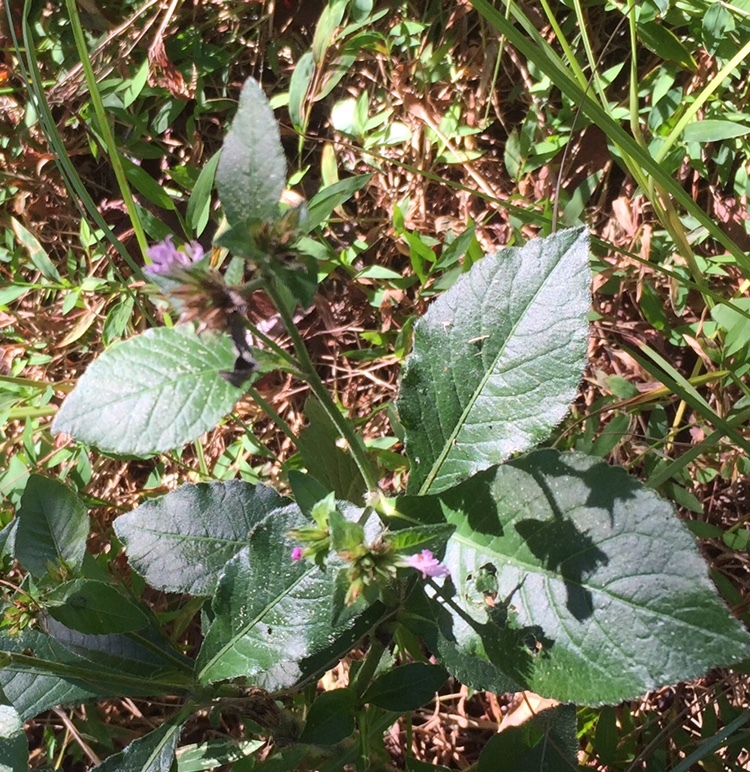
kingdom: Plantae
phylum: Tracheophyta
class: Magnoliopsida
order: Asterales
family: Asteraceae
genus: Elephantopus
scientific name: Elephantopus carolinianus
